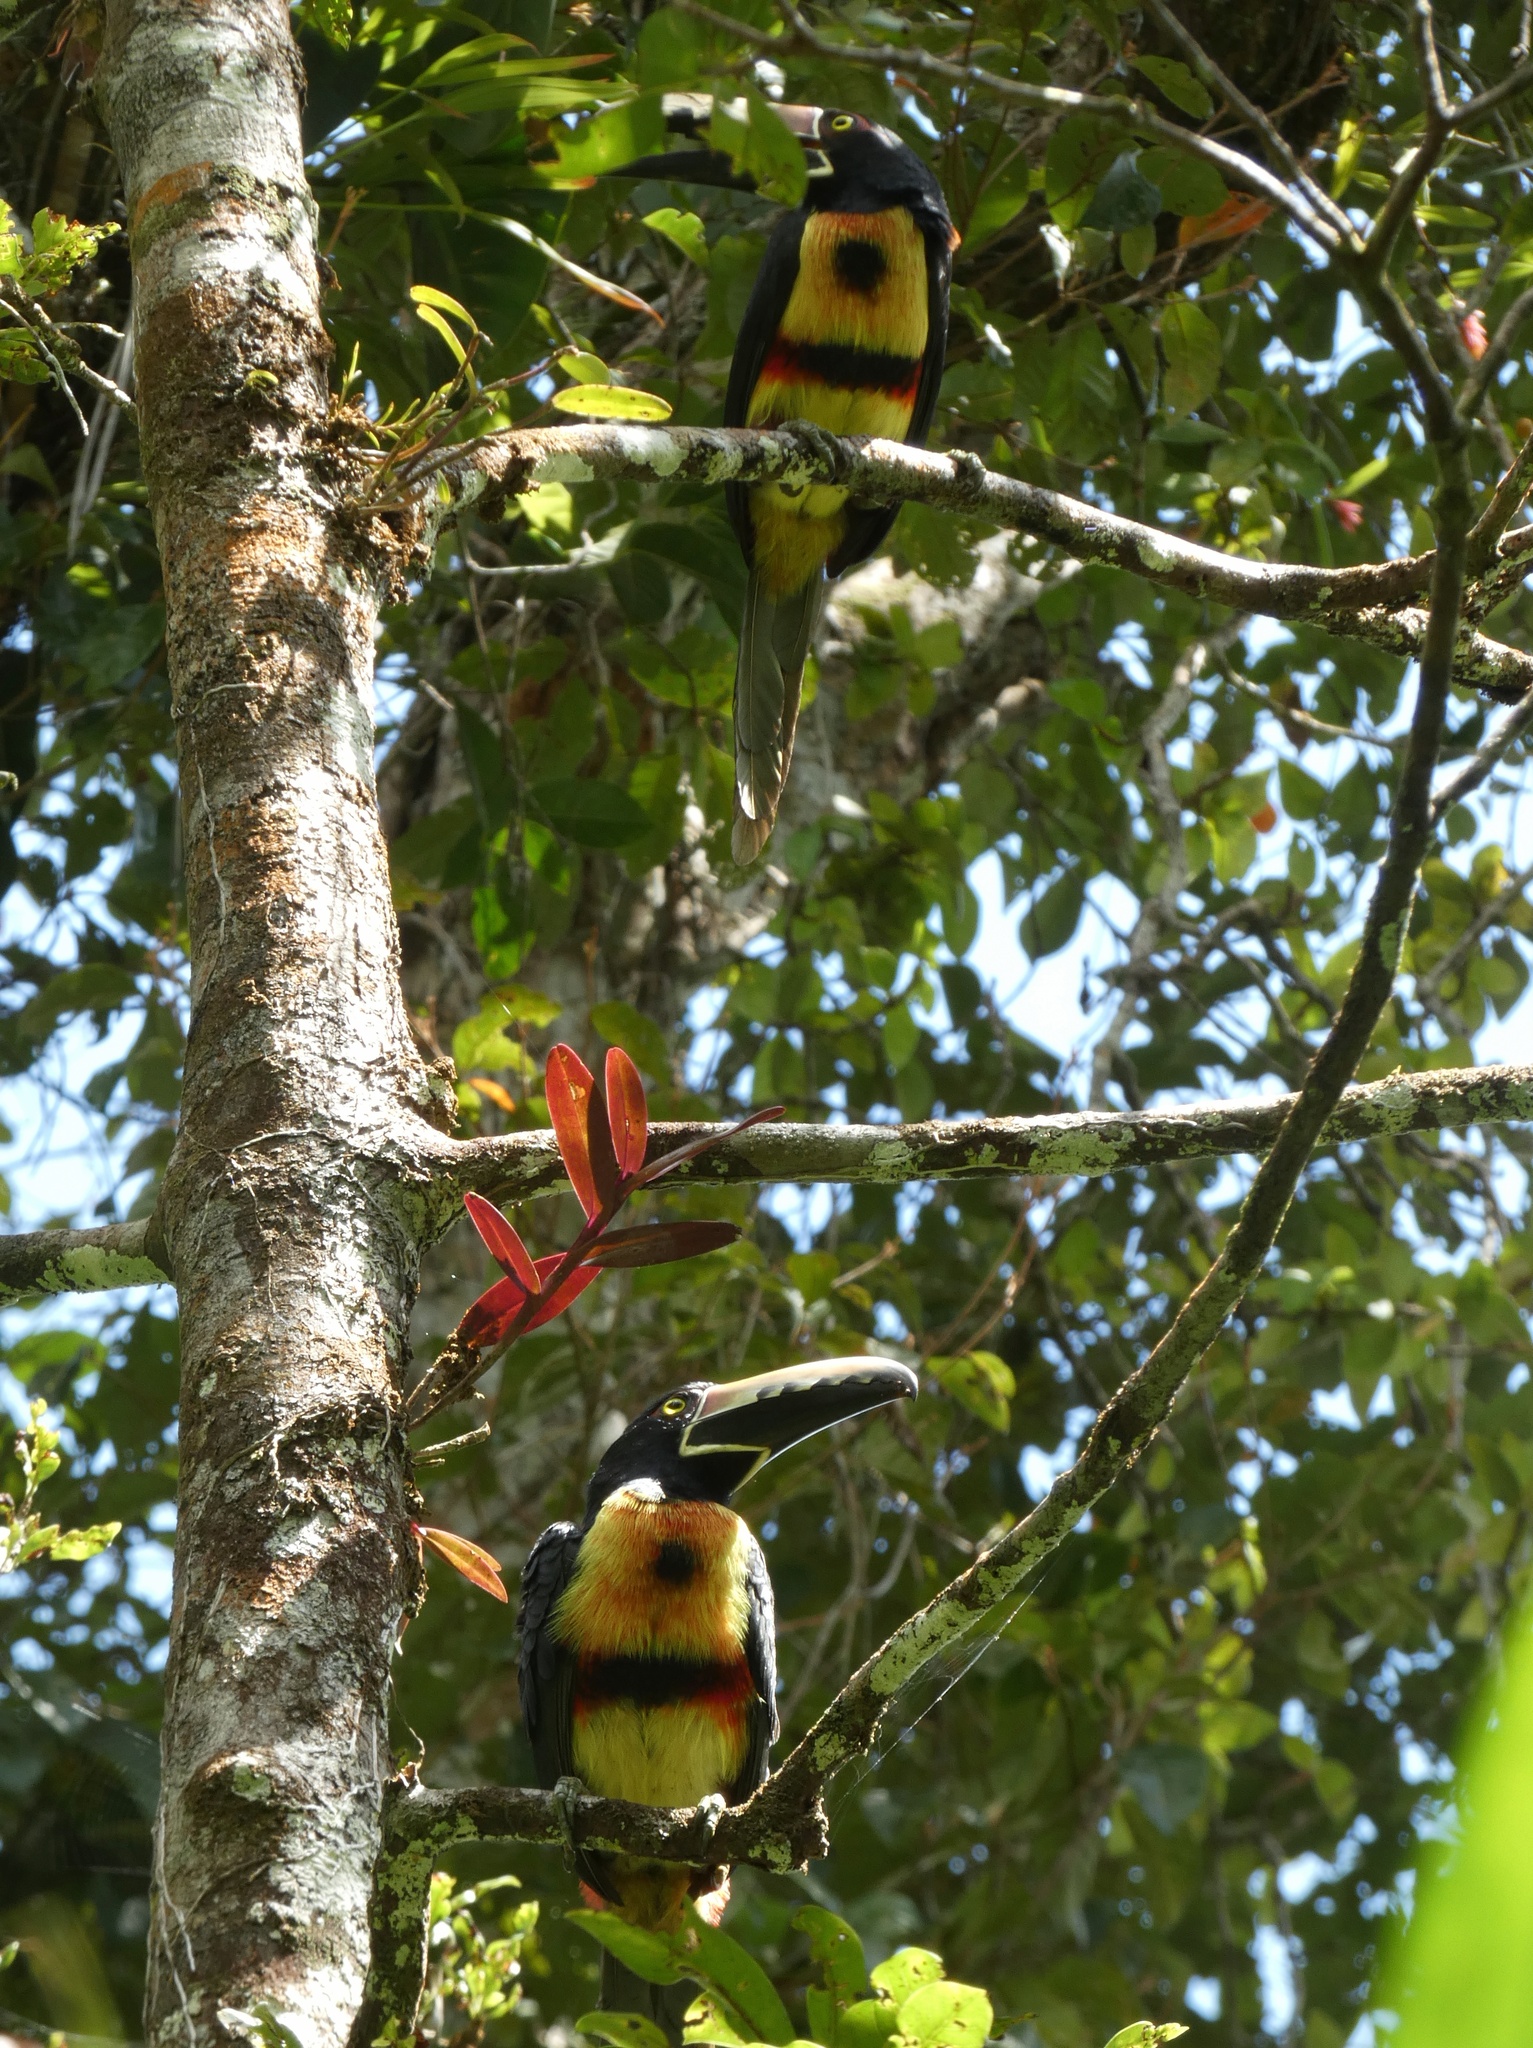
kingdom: Animalia
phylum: Chordata
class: Aves
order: Piciformes
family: Ramphastidae
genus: Pteroglossus
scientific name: Pteroglossus torquatus
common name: Collared aracari
